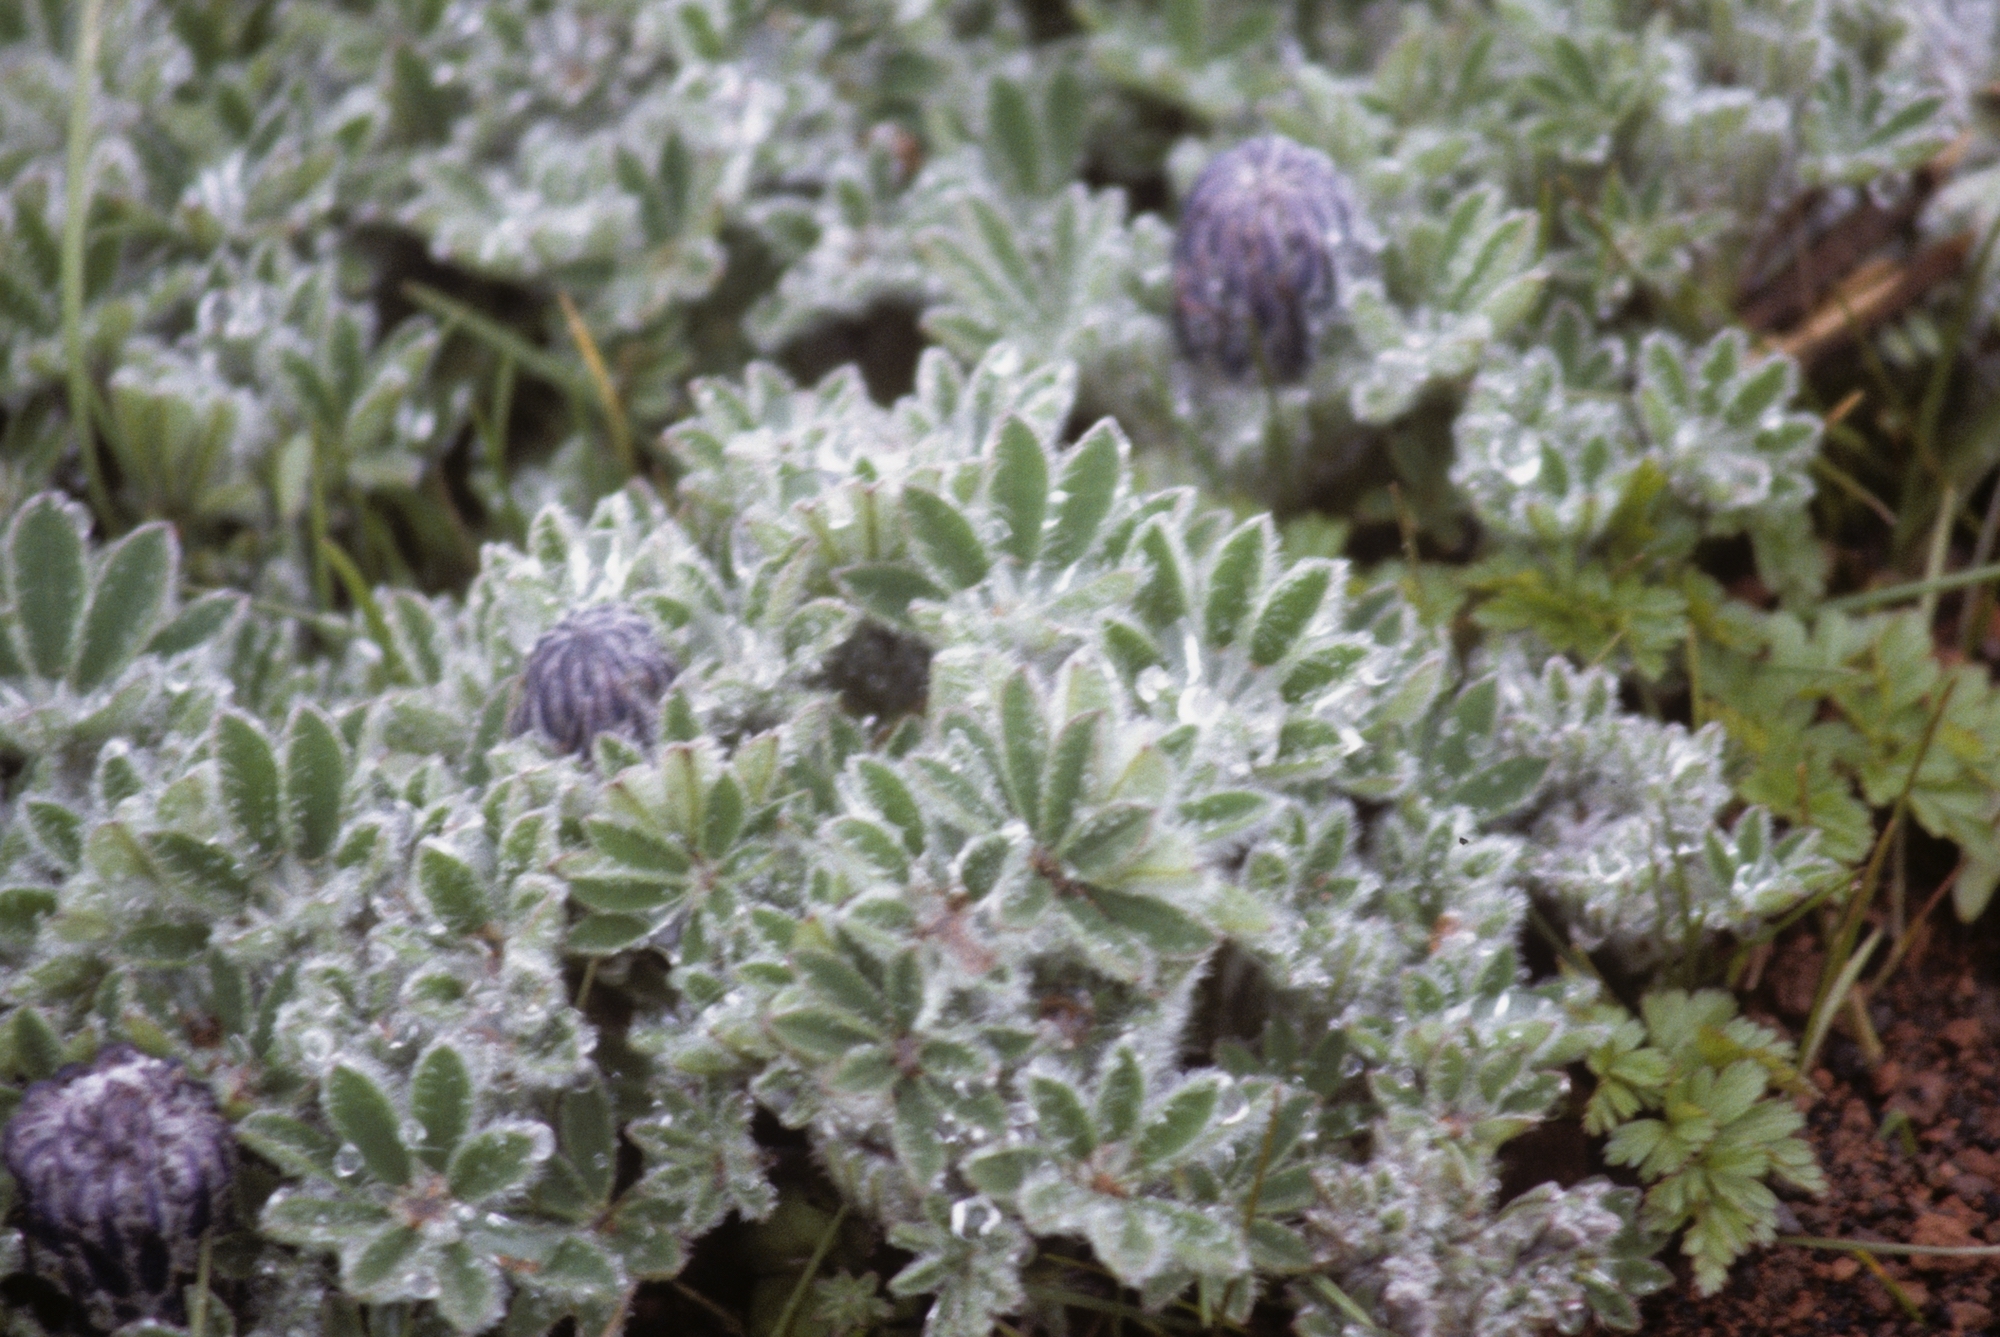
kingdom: Plantae
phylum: Tracheophyta
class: Magnoliopsida
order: Fabales
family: Fabaceae
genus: Lupinus
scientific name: Lupinus nootkatensis
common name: Nootka lupine
